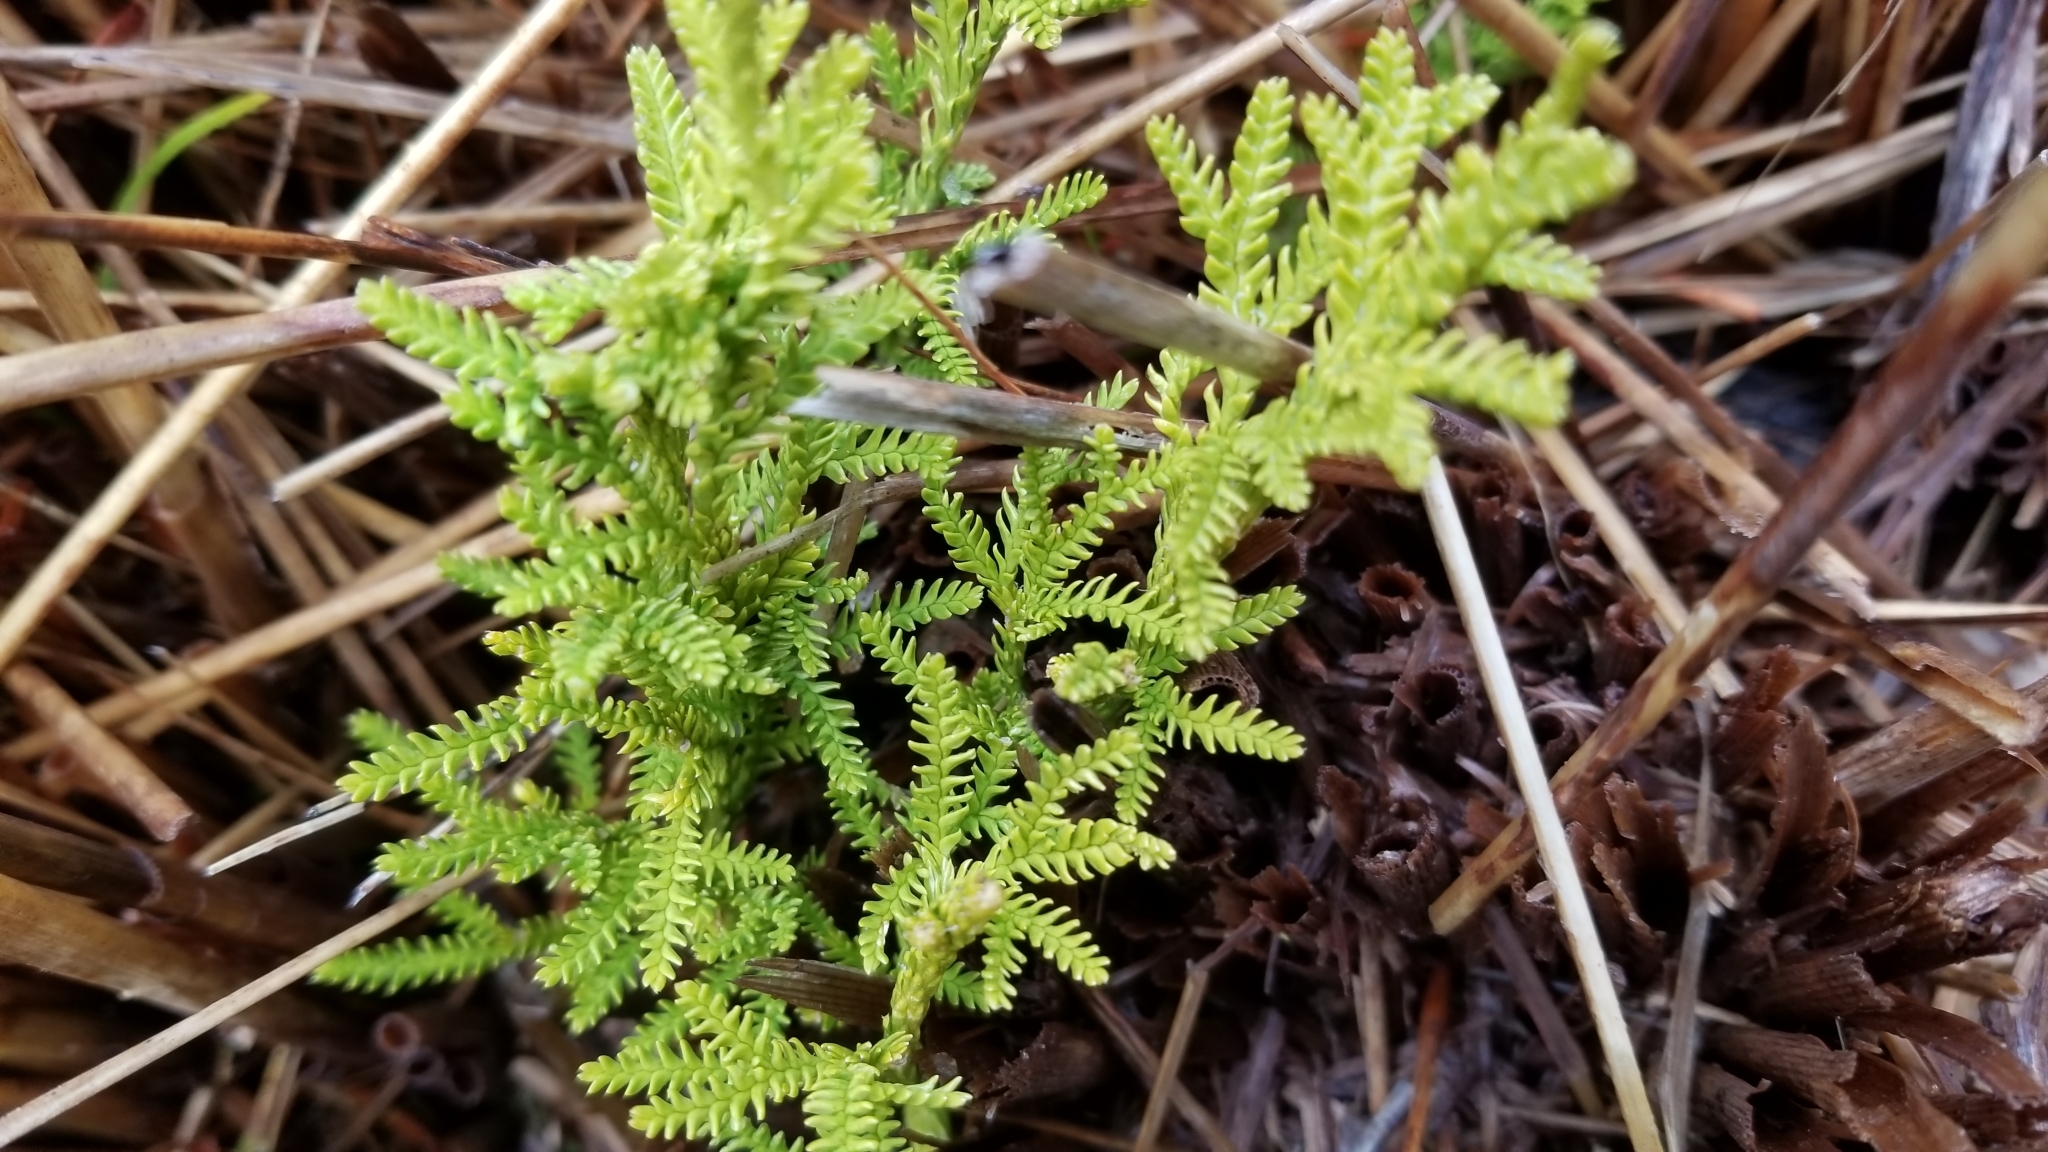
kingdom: Plantae
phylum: Tracheophyta
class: Lycopodiopsida
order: Lycopodiales
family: Lycopodiaceae
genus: Diphasium
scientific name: Diphasium scariosum
